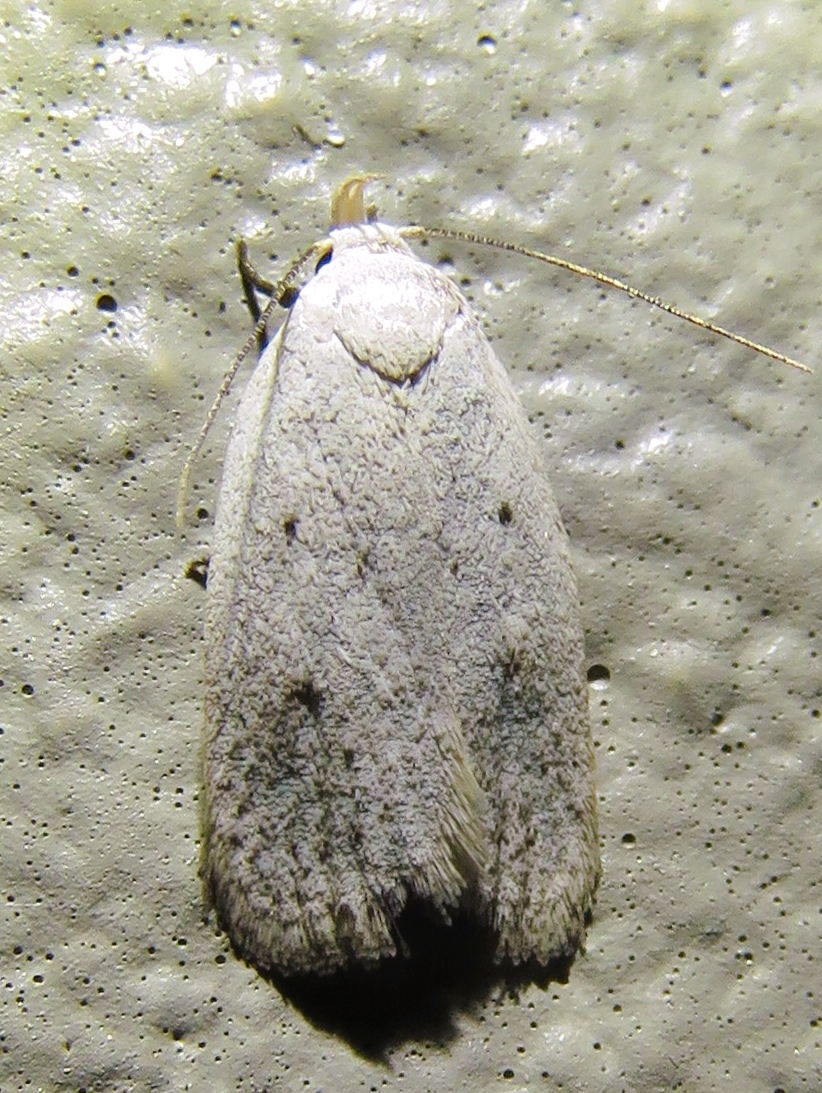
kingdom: Animalia
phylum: Arthropoda
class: Insecta
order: Lepidoptera
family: Oecophoridae
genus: Inga
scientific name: Inga cretacea
